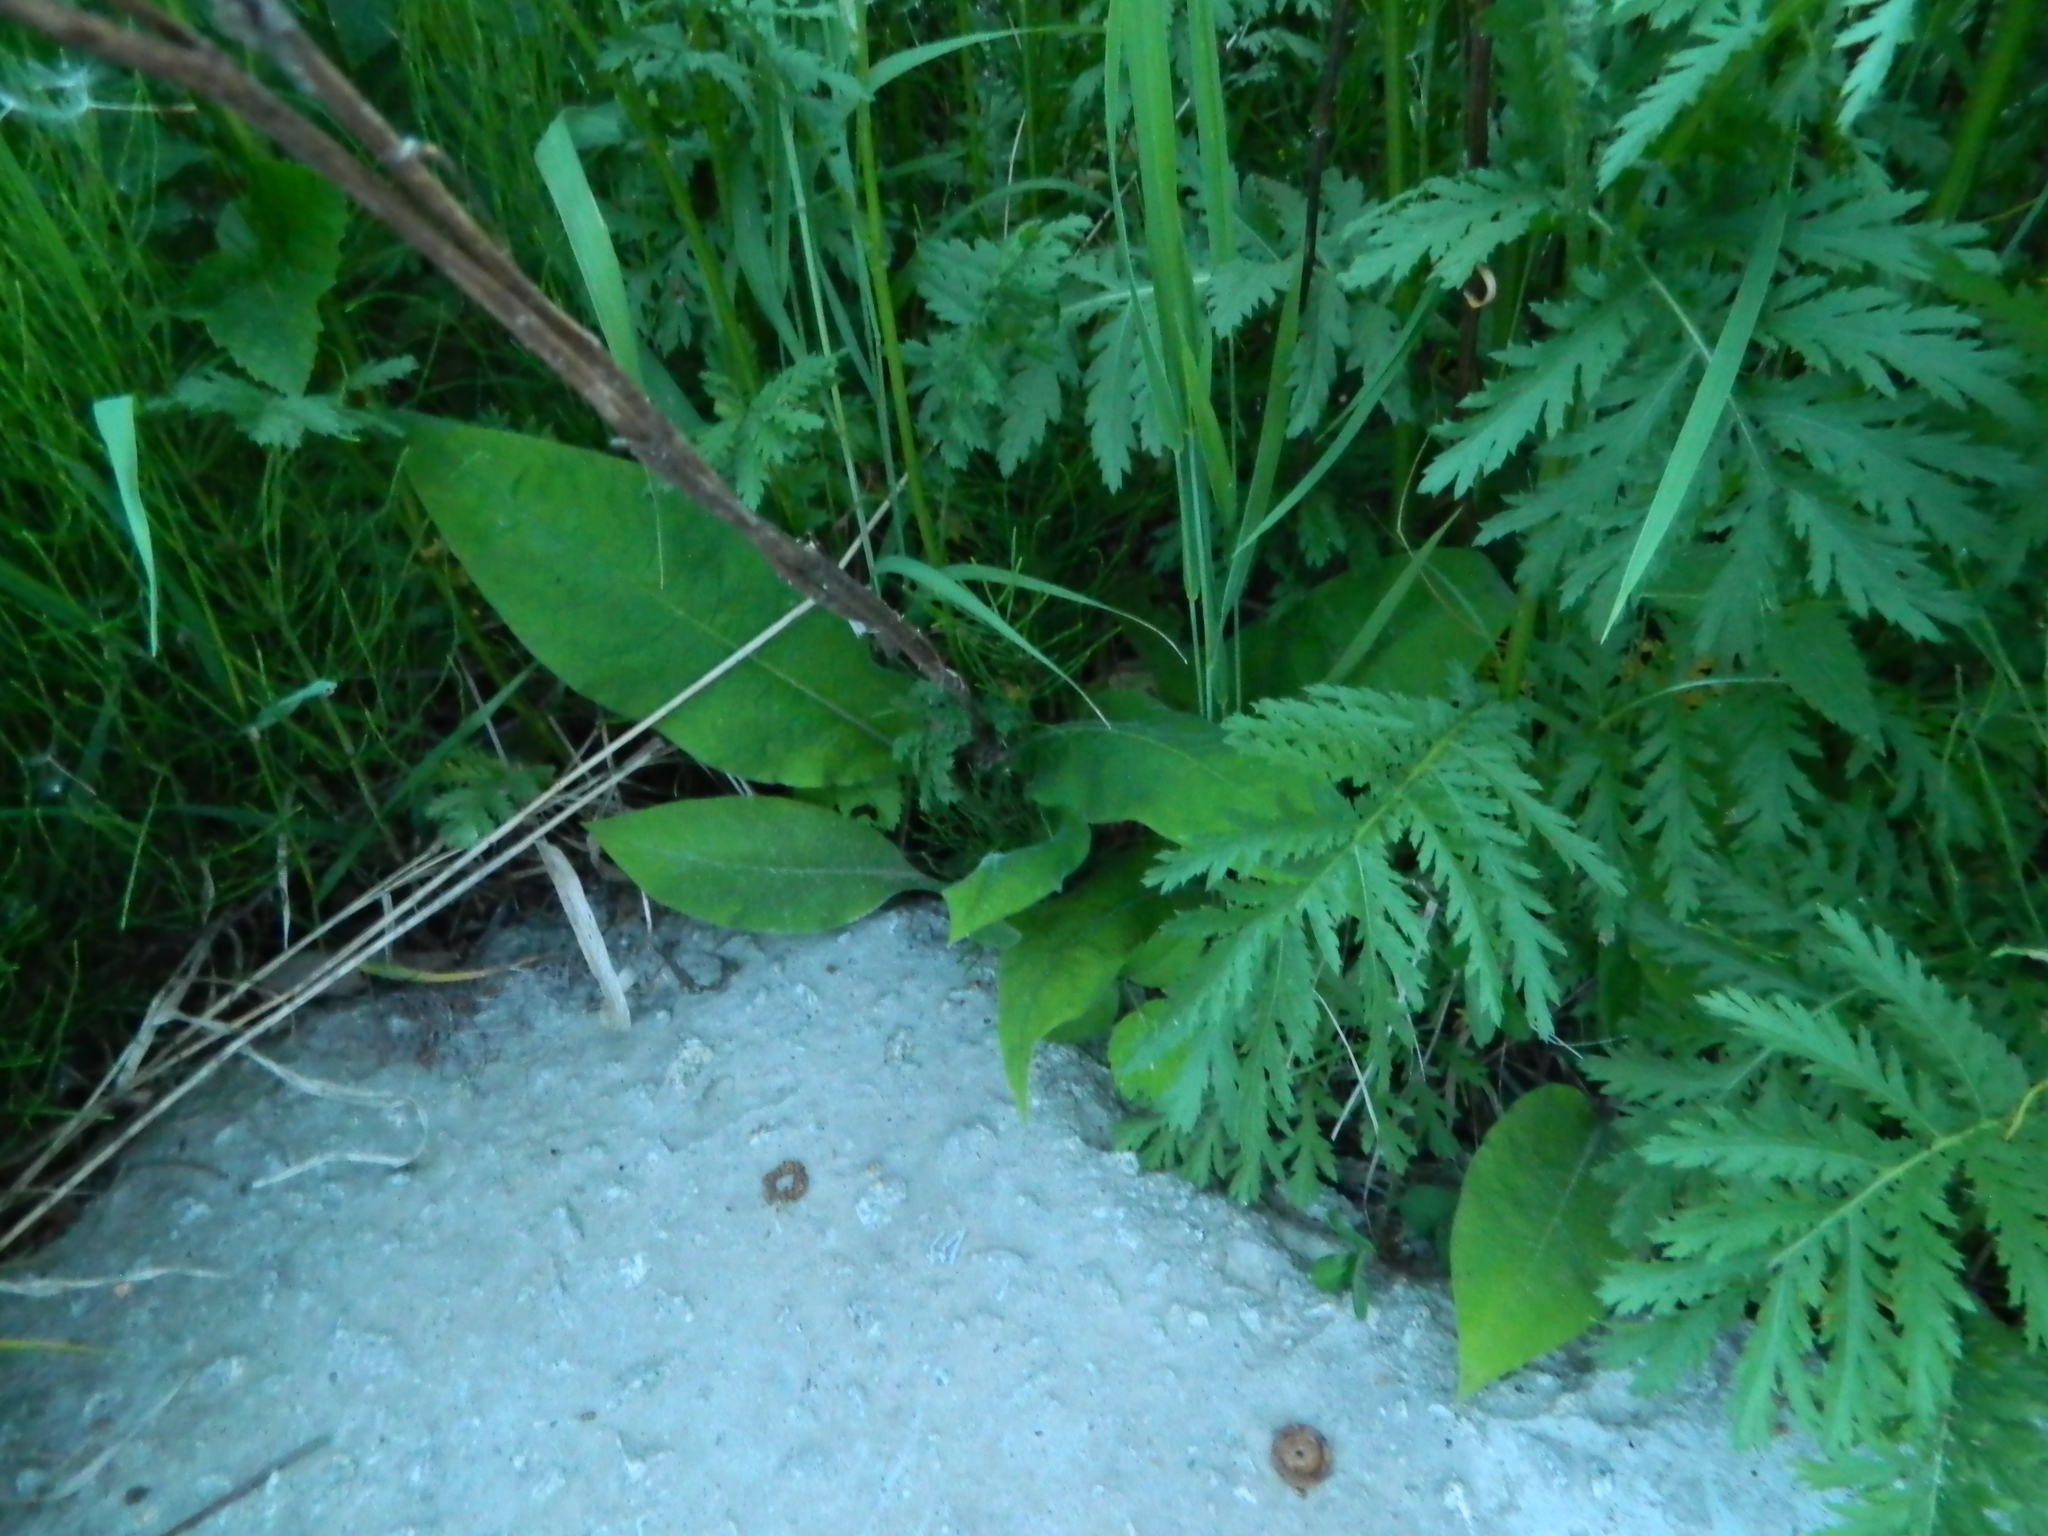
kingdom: Plantae
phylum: Tracheophyta
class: Magnoliopsida
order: Boraginales
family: Boraginaceae
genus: Pulmonaria
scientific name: Pulmonaria mollis
